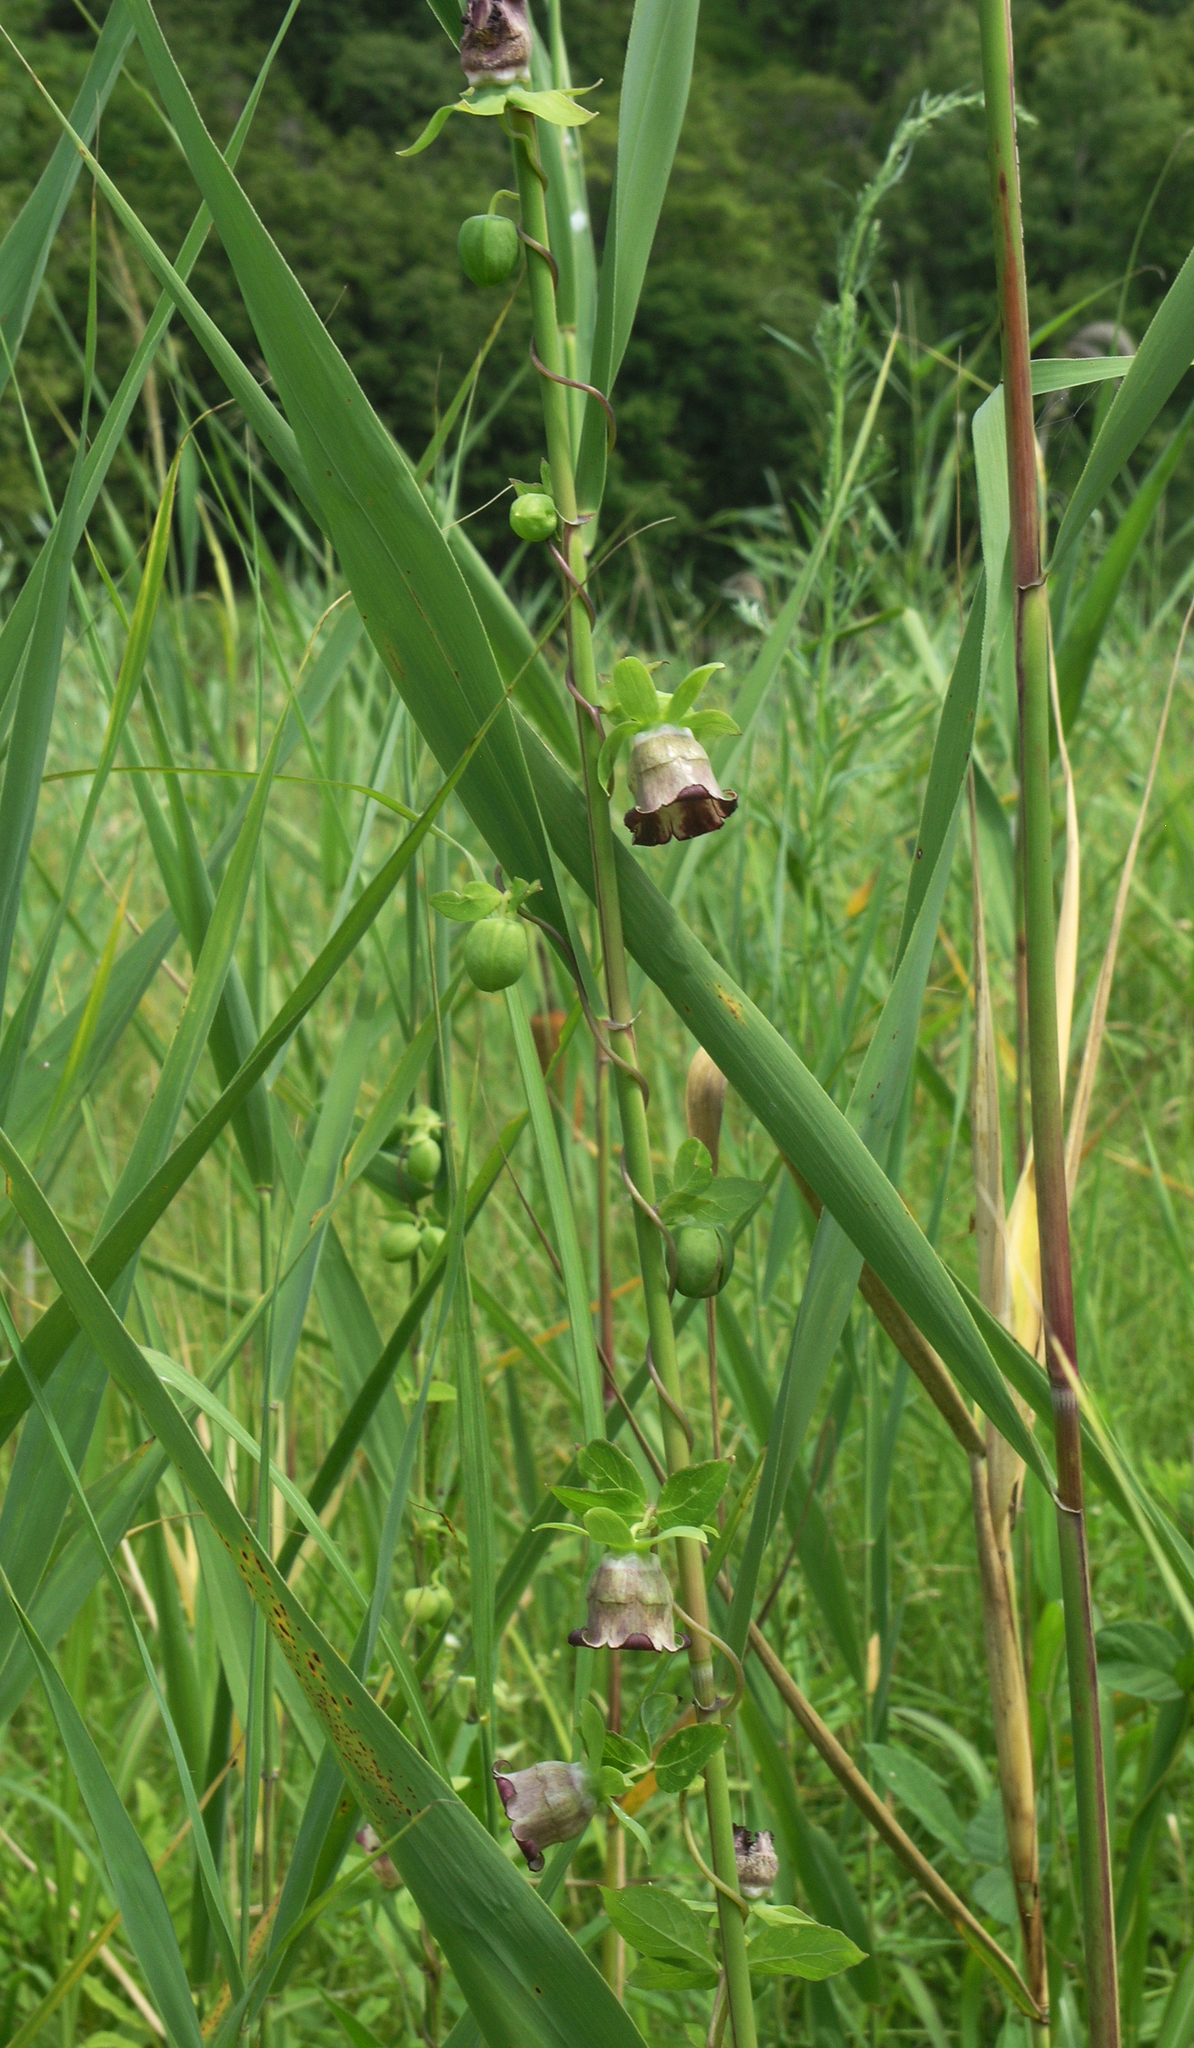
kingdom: Plantae
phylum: Tracheophyta
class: Magnoliopsida
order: Asterales
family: Campanulaceae
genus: Codonopsis
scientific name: Codonopsis ussuriensis
